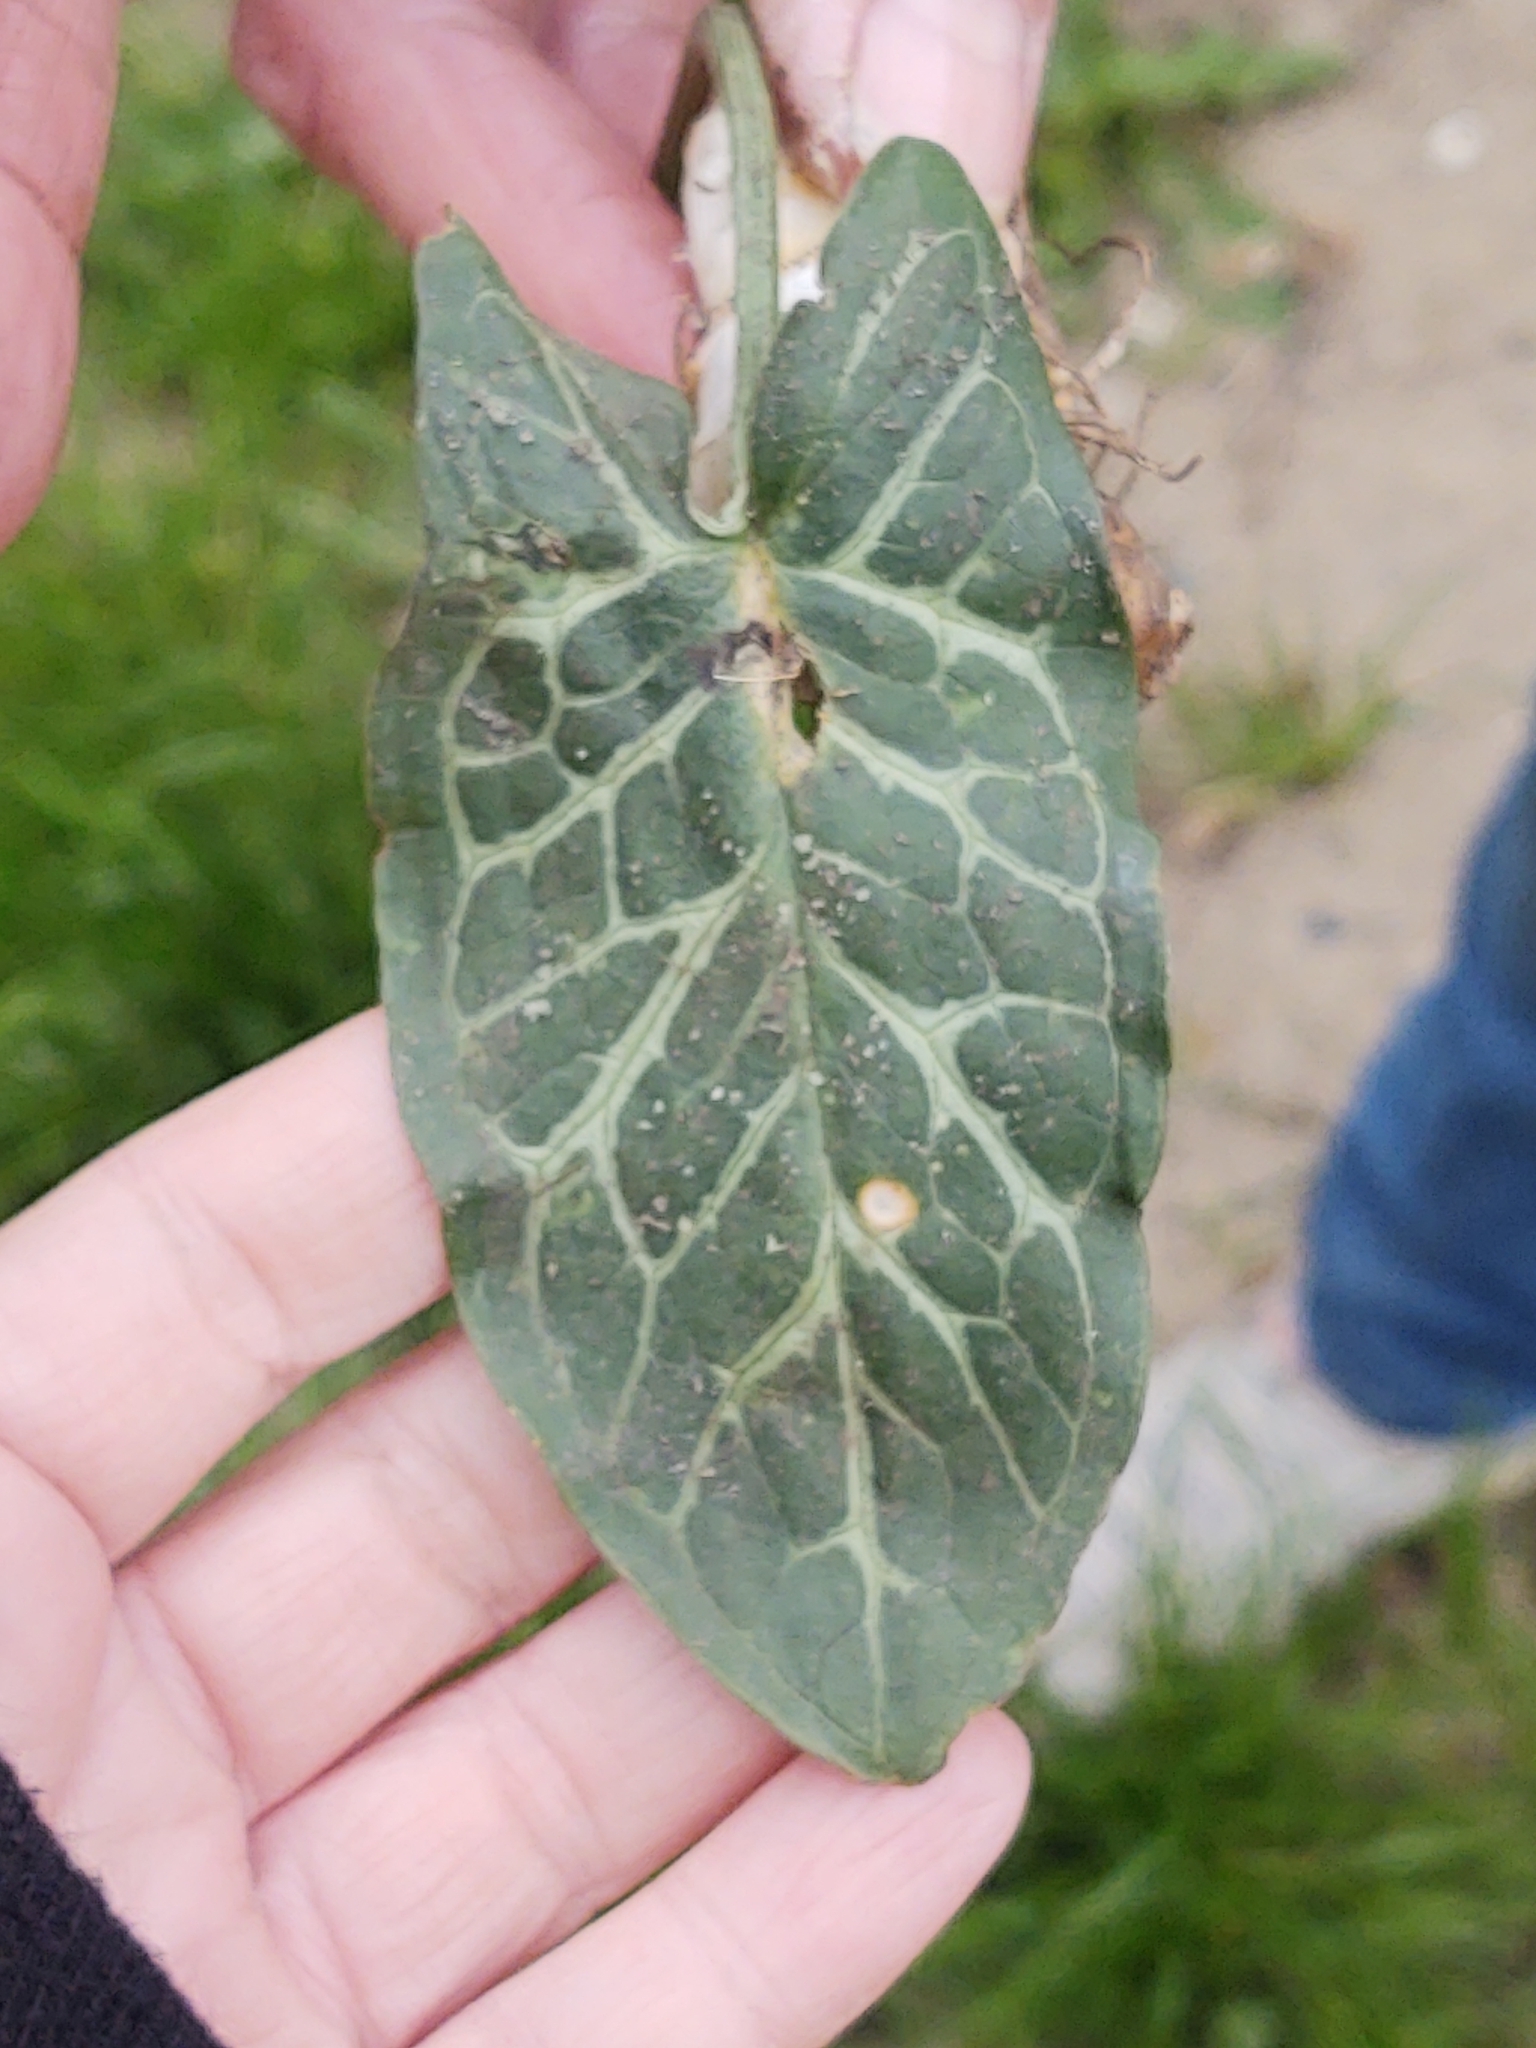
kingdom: Plantae
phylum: Tracheophyta
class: Liliopsida
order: Alismatales
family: Araceae
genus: Arum
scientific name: Arum italicum
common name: Italian lords-and-ladies
